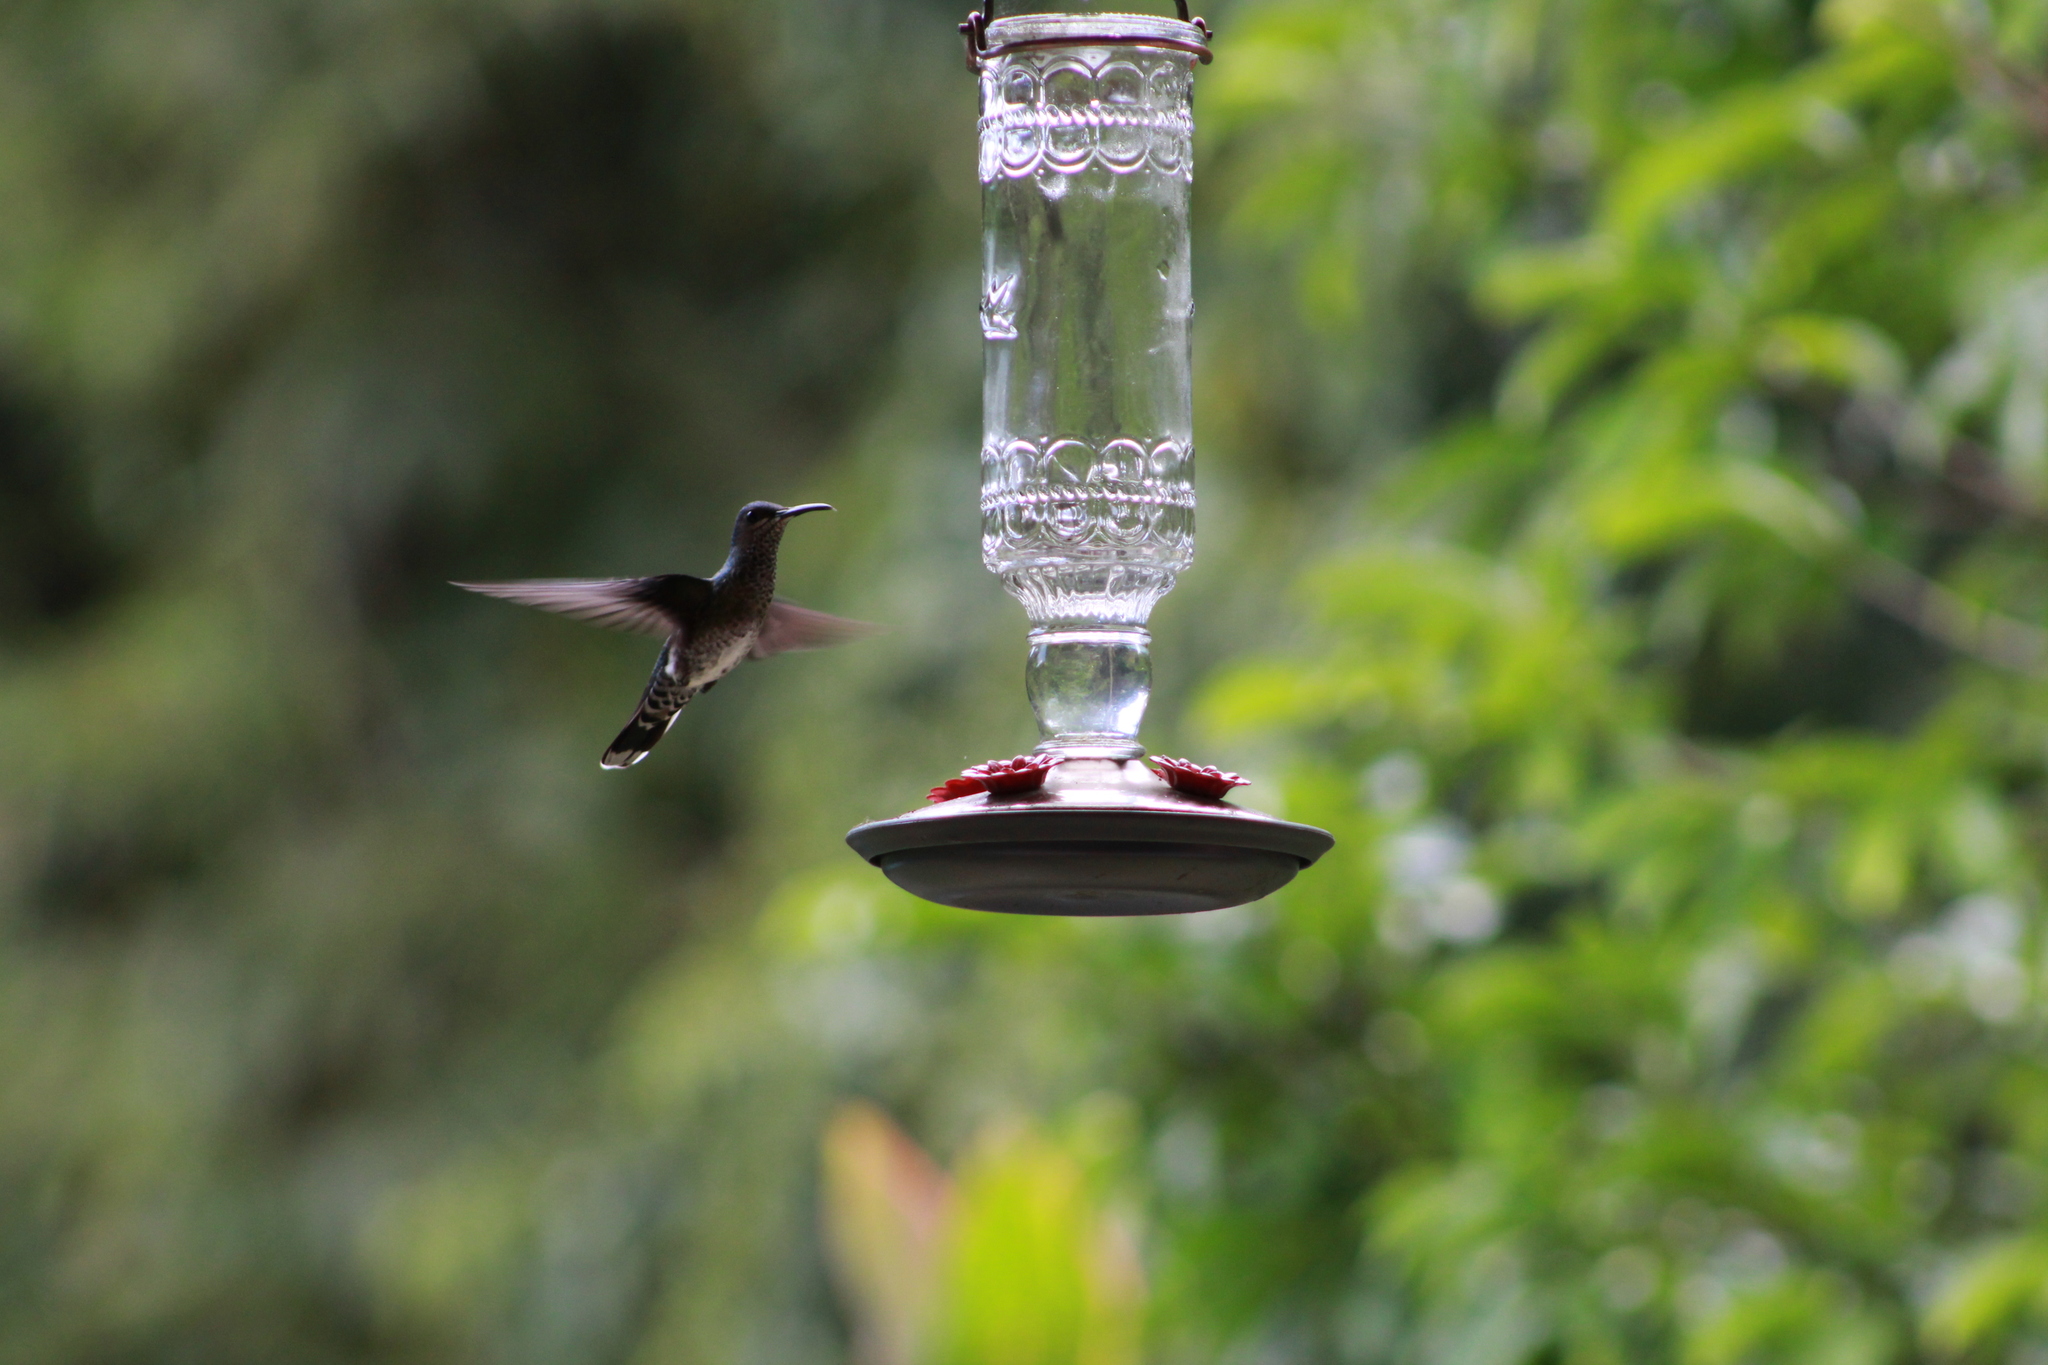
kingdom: Animalia
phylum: Chordata
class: Aves
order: Apodiformes
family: Trochilidae
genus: Florisuga
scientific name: Florisuga mellivora
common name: White-necked jacobin
